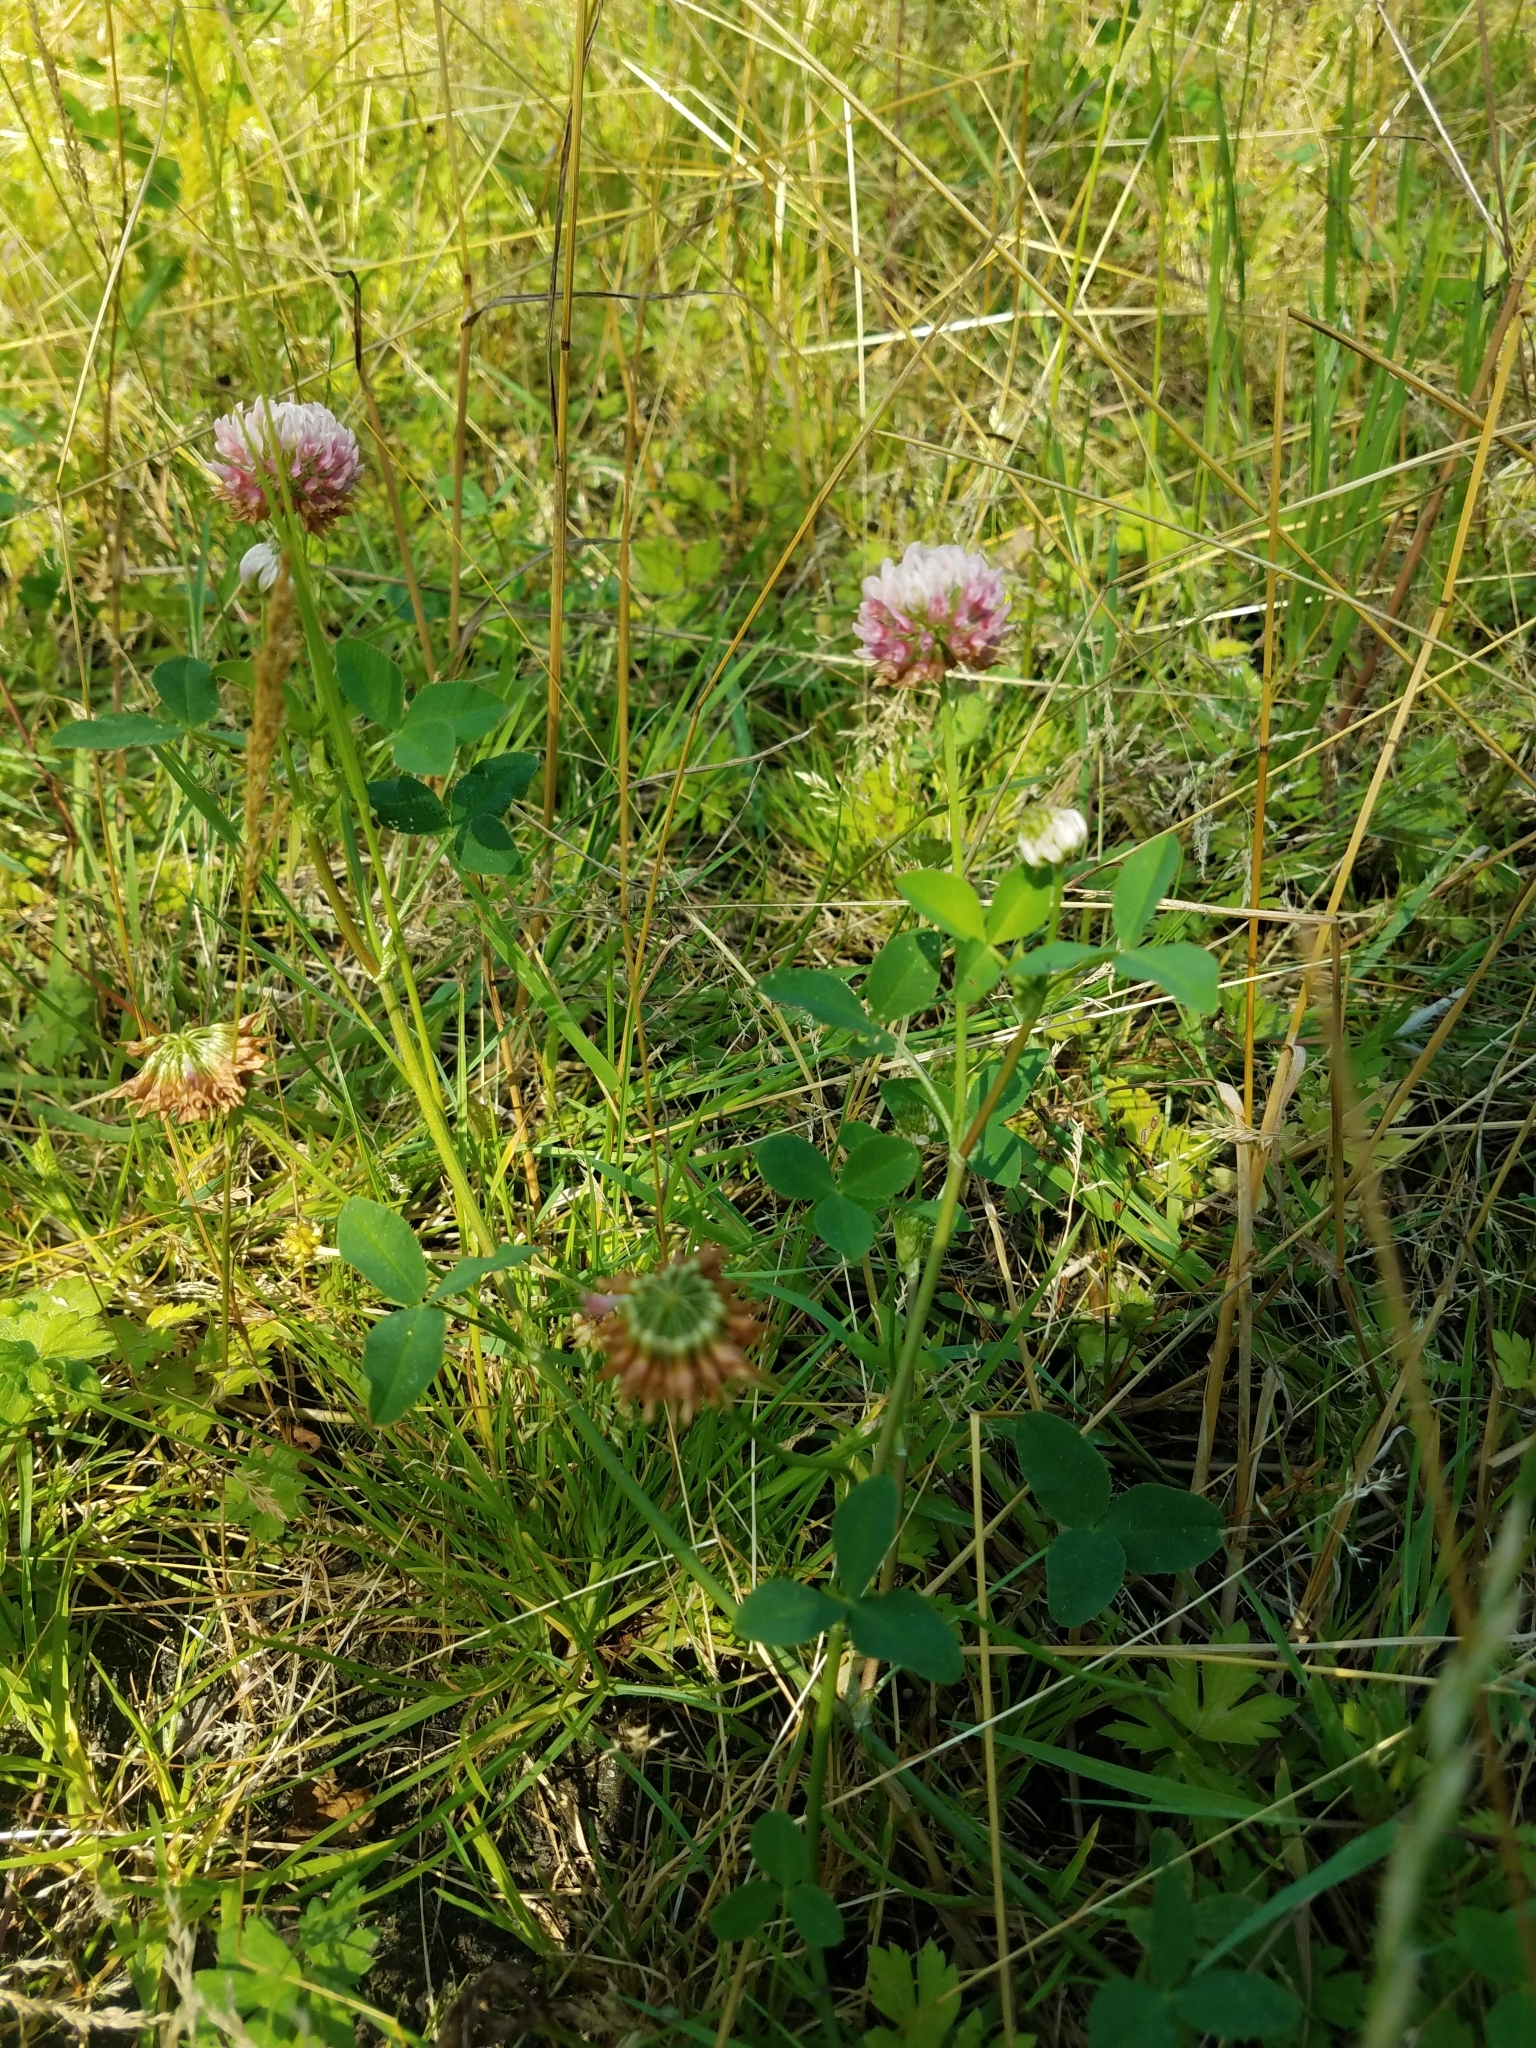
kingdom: Plantae
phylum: Tracheophyta
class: Magnoliopsida
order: Fabales
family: Fabaceae
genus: Trifolium
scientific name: Trifolium hybridum
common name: Alsike clover
